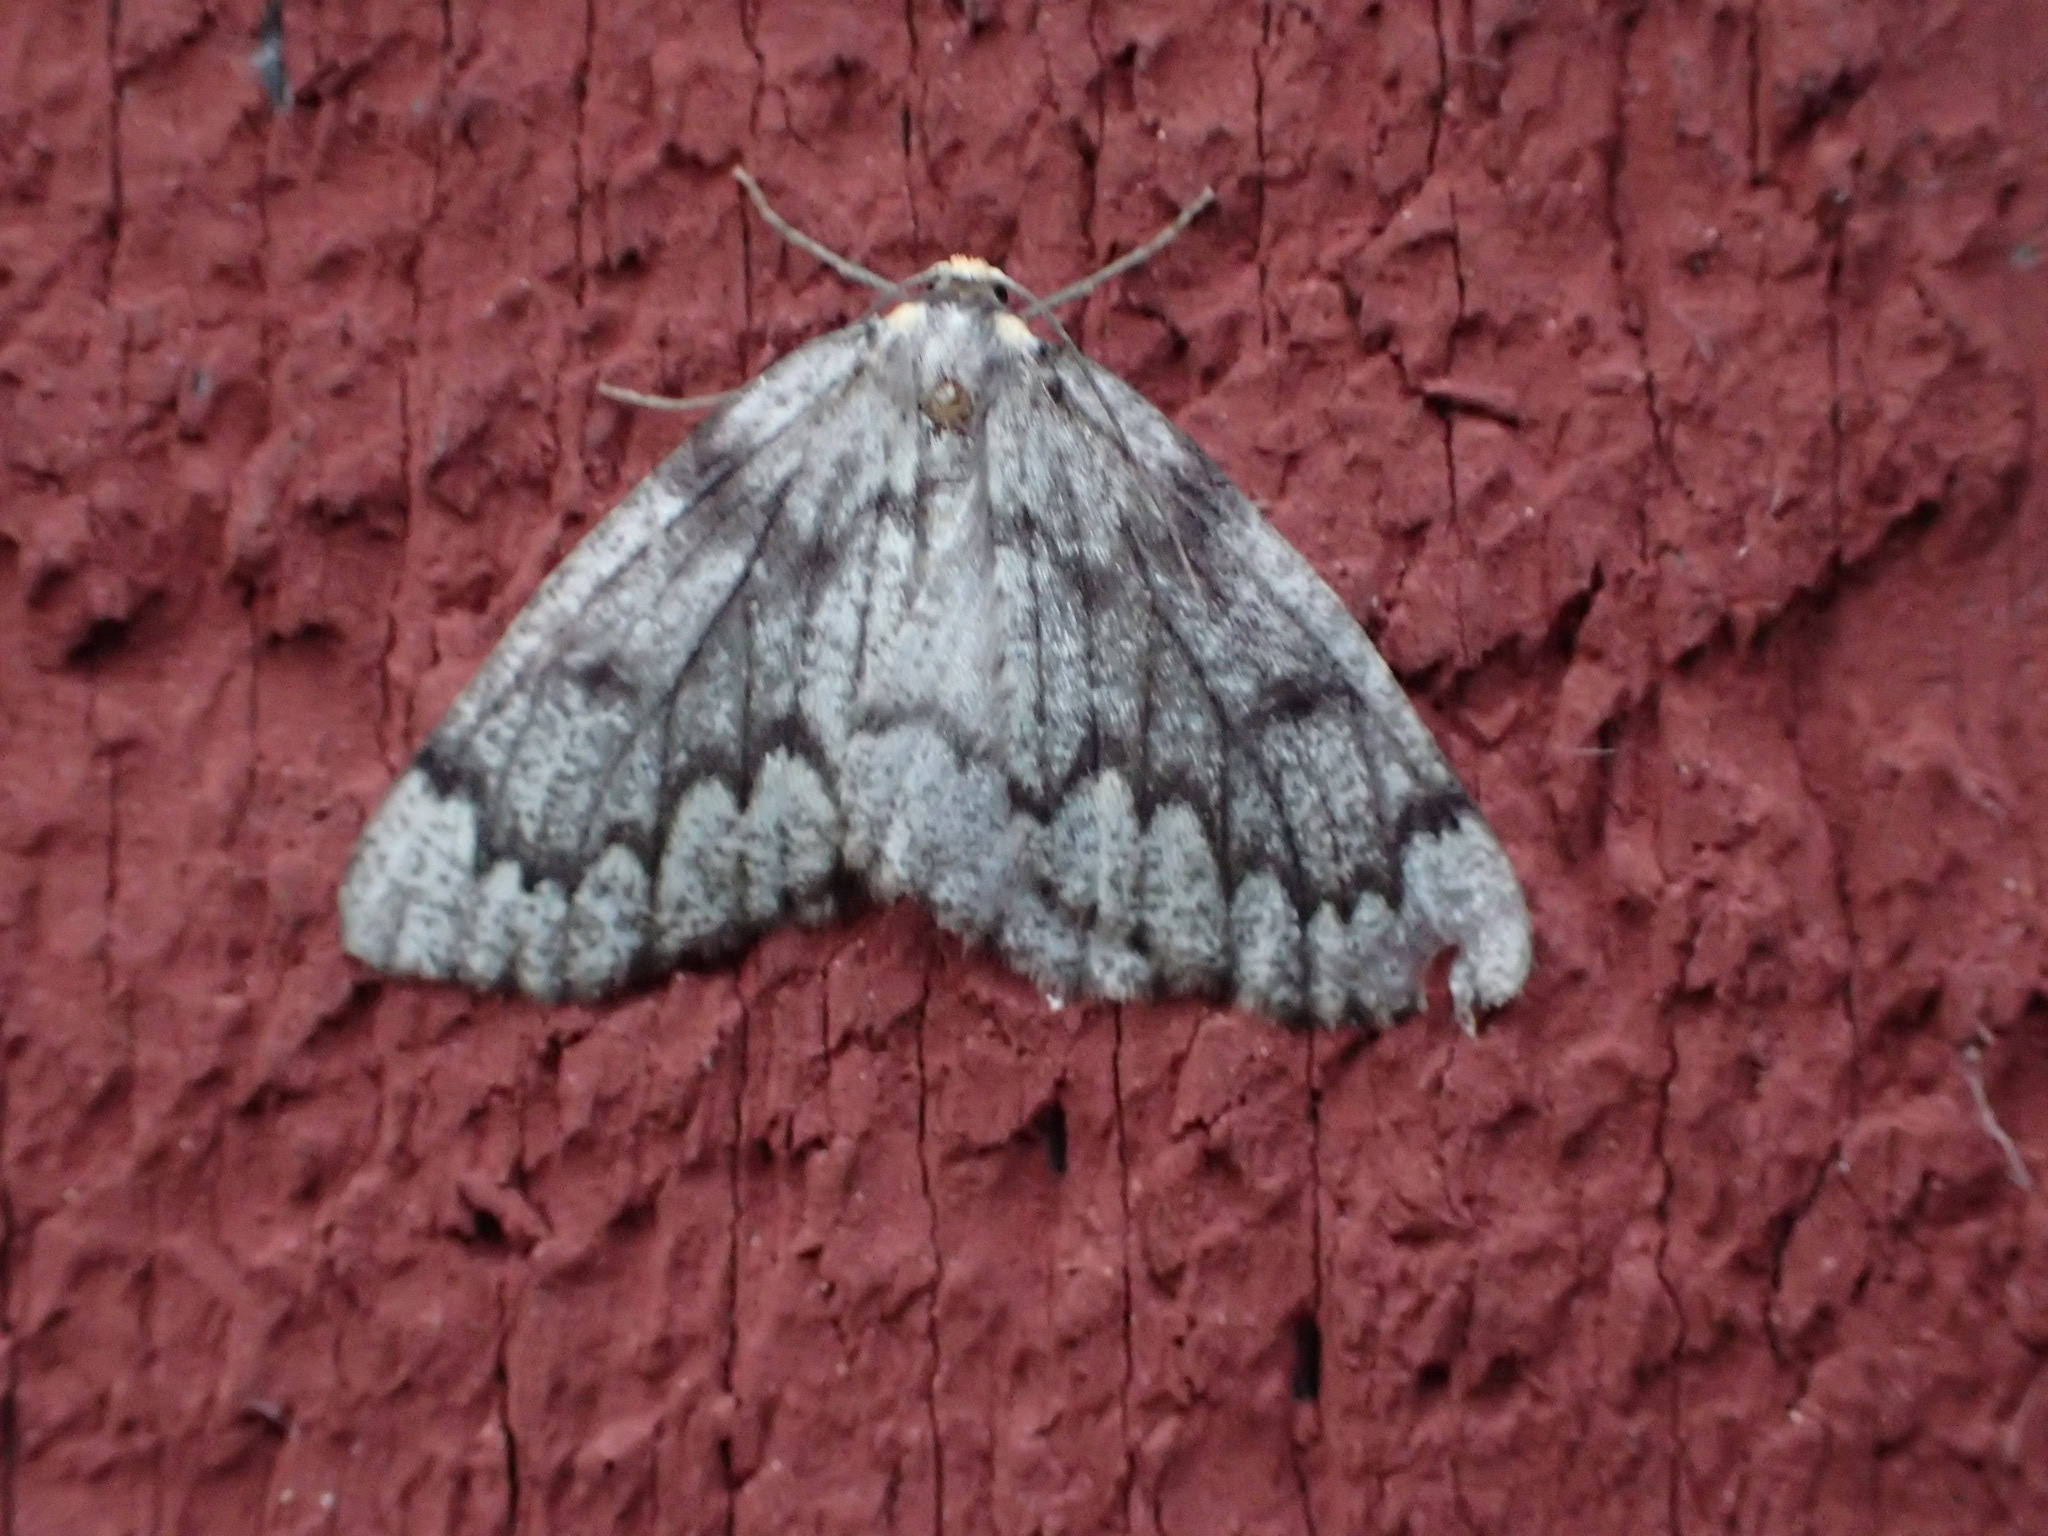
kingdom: Animalia
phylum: Arthropoda
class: Insecta
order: Lepidoptera
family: Geometridae
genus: Nepytia
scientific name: Nepytia canosaria
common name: False hemlock looper
